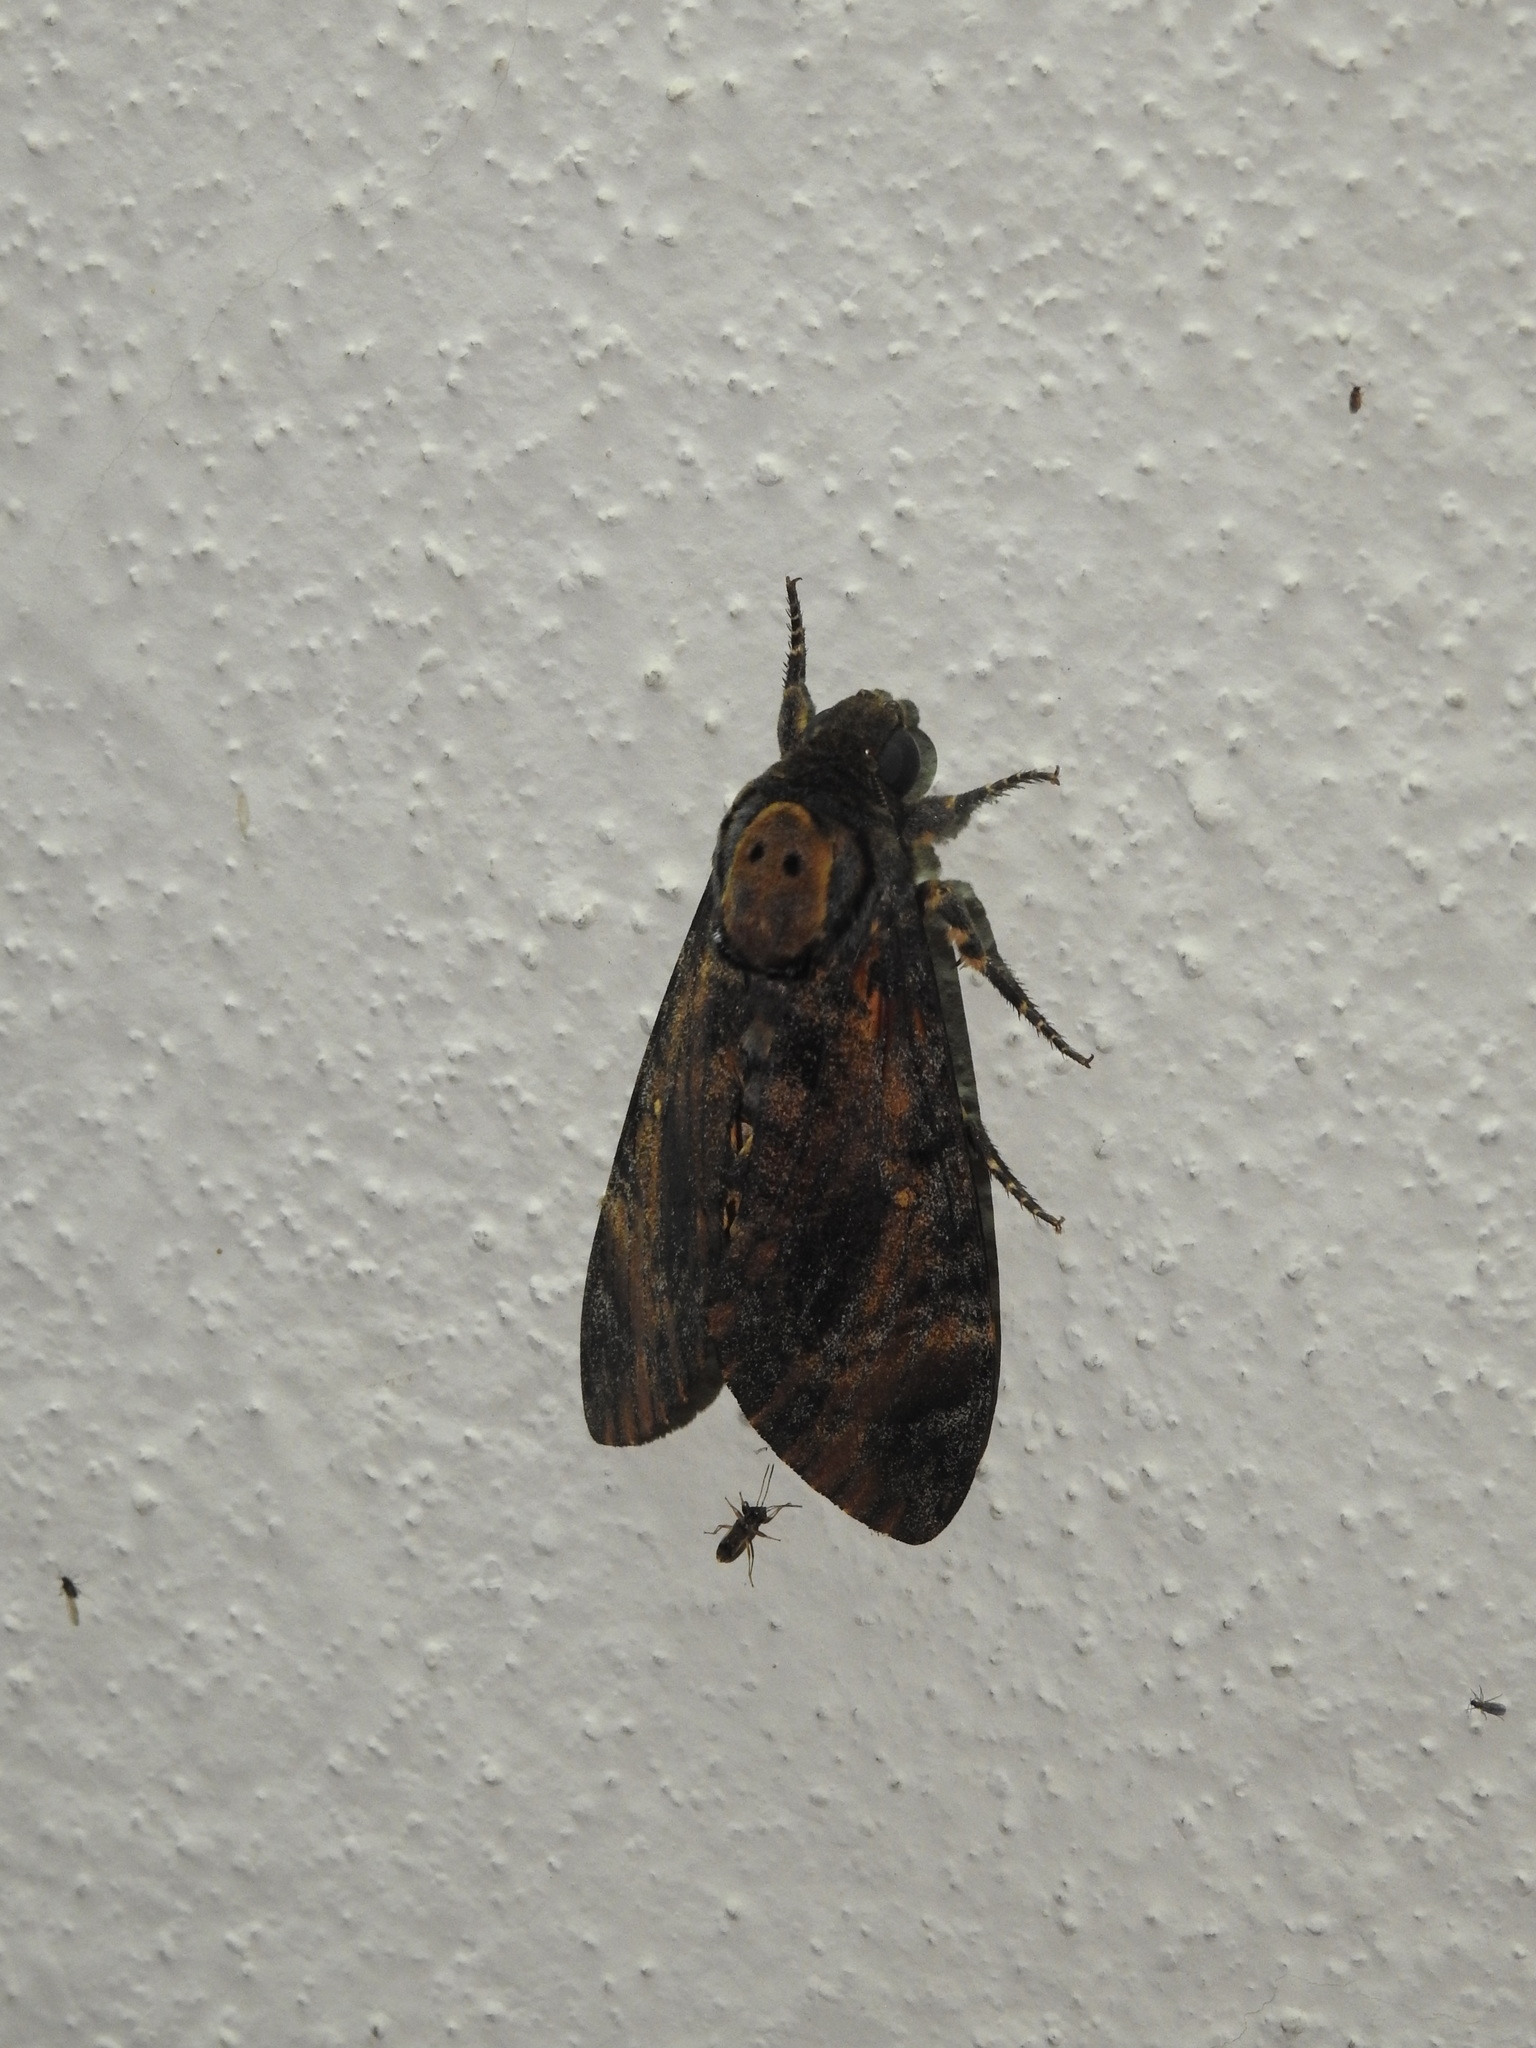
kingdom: Animalia
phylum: Arthropoda
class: Insecta
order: Lepidoptera
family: Sphingidae
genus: Acherontia
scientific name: Acherontia styx
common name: Death's-head hawk moth
